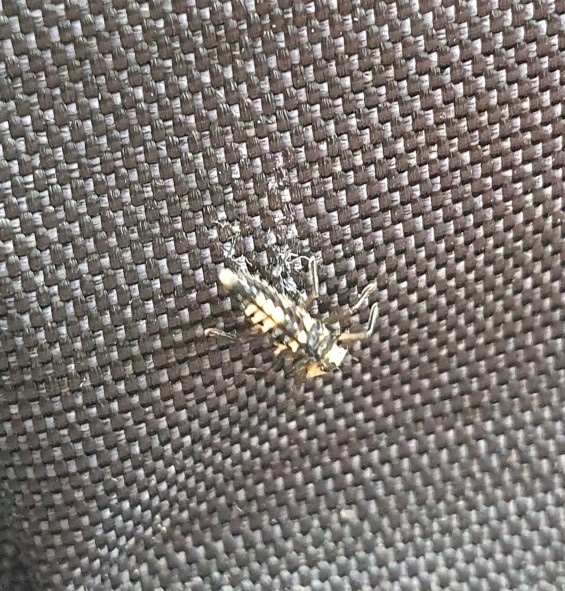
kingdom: Animalia
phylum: Arthropoda
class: Insecta
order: Coleoptera
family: Coccinellidae
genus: Harmonia
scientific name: Harmonia
